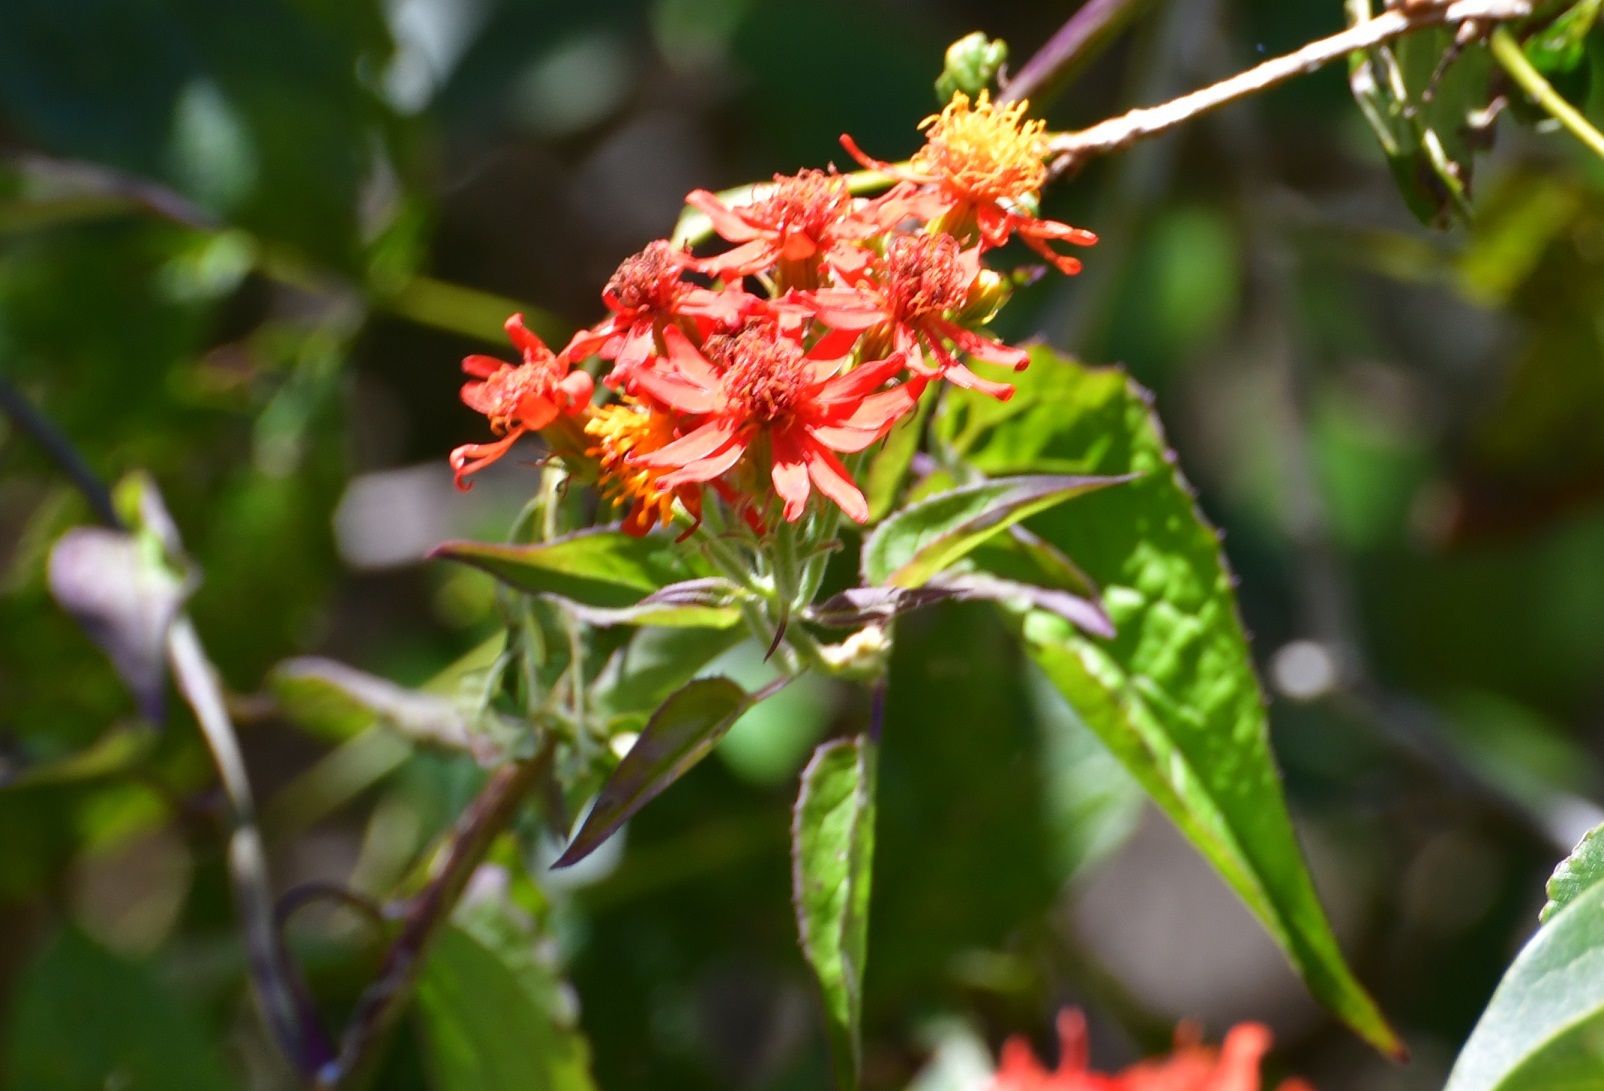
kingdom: Plantae
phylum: Tracheophyta
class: Magnoliopsida
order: Asterales
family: Asteraceae
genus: Pseudogynoxys
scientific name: Pseudogynoxys haenkei
